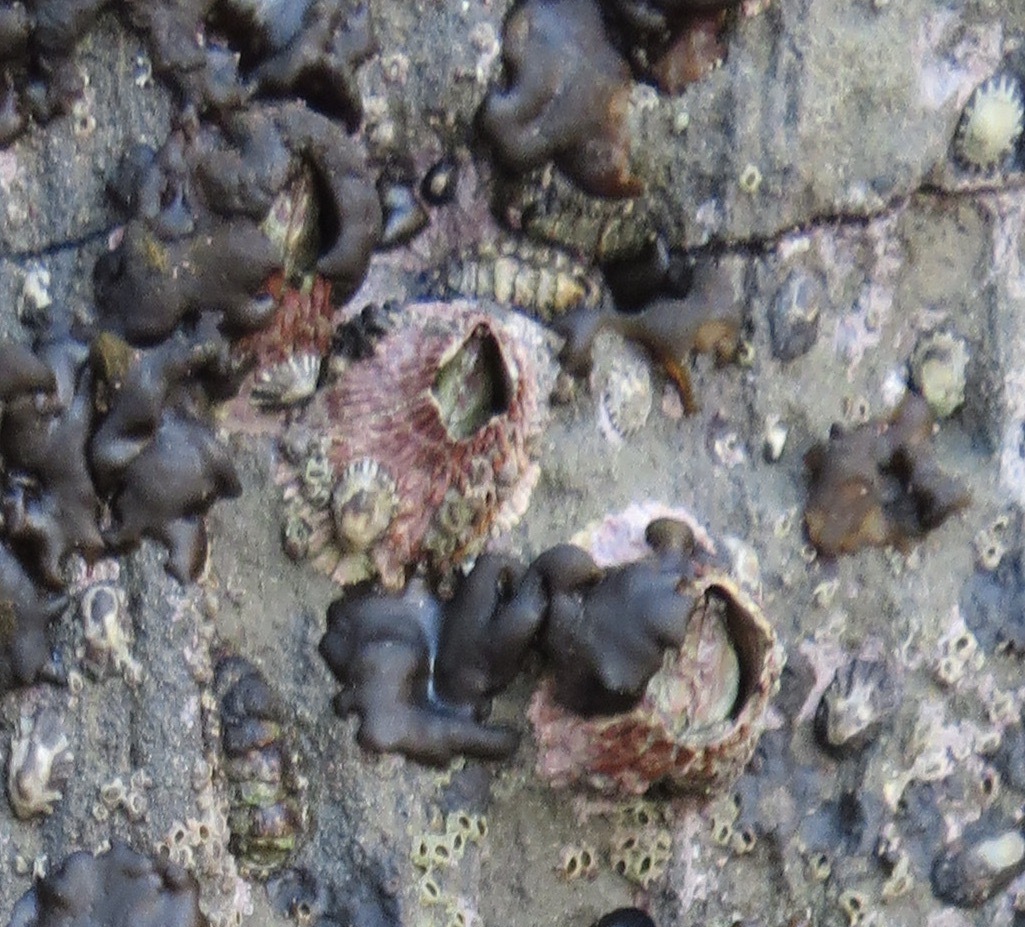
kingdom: Animalia
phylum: Arthropoda
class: Maxillopoda
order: Sessilia
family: Tetraclitidae
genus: Tetraclita
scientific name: Tetraclita rubescens
